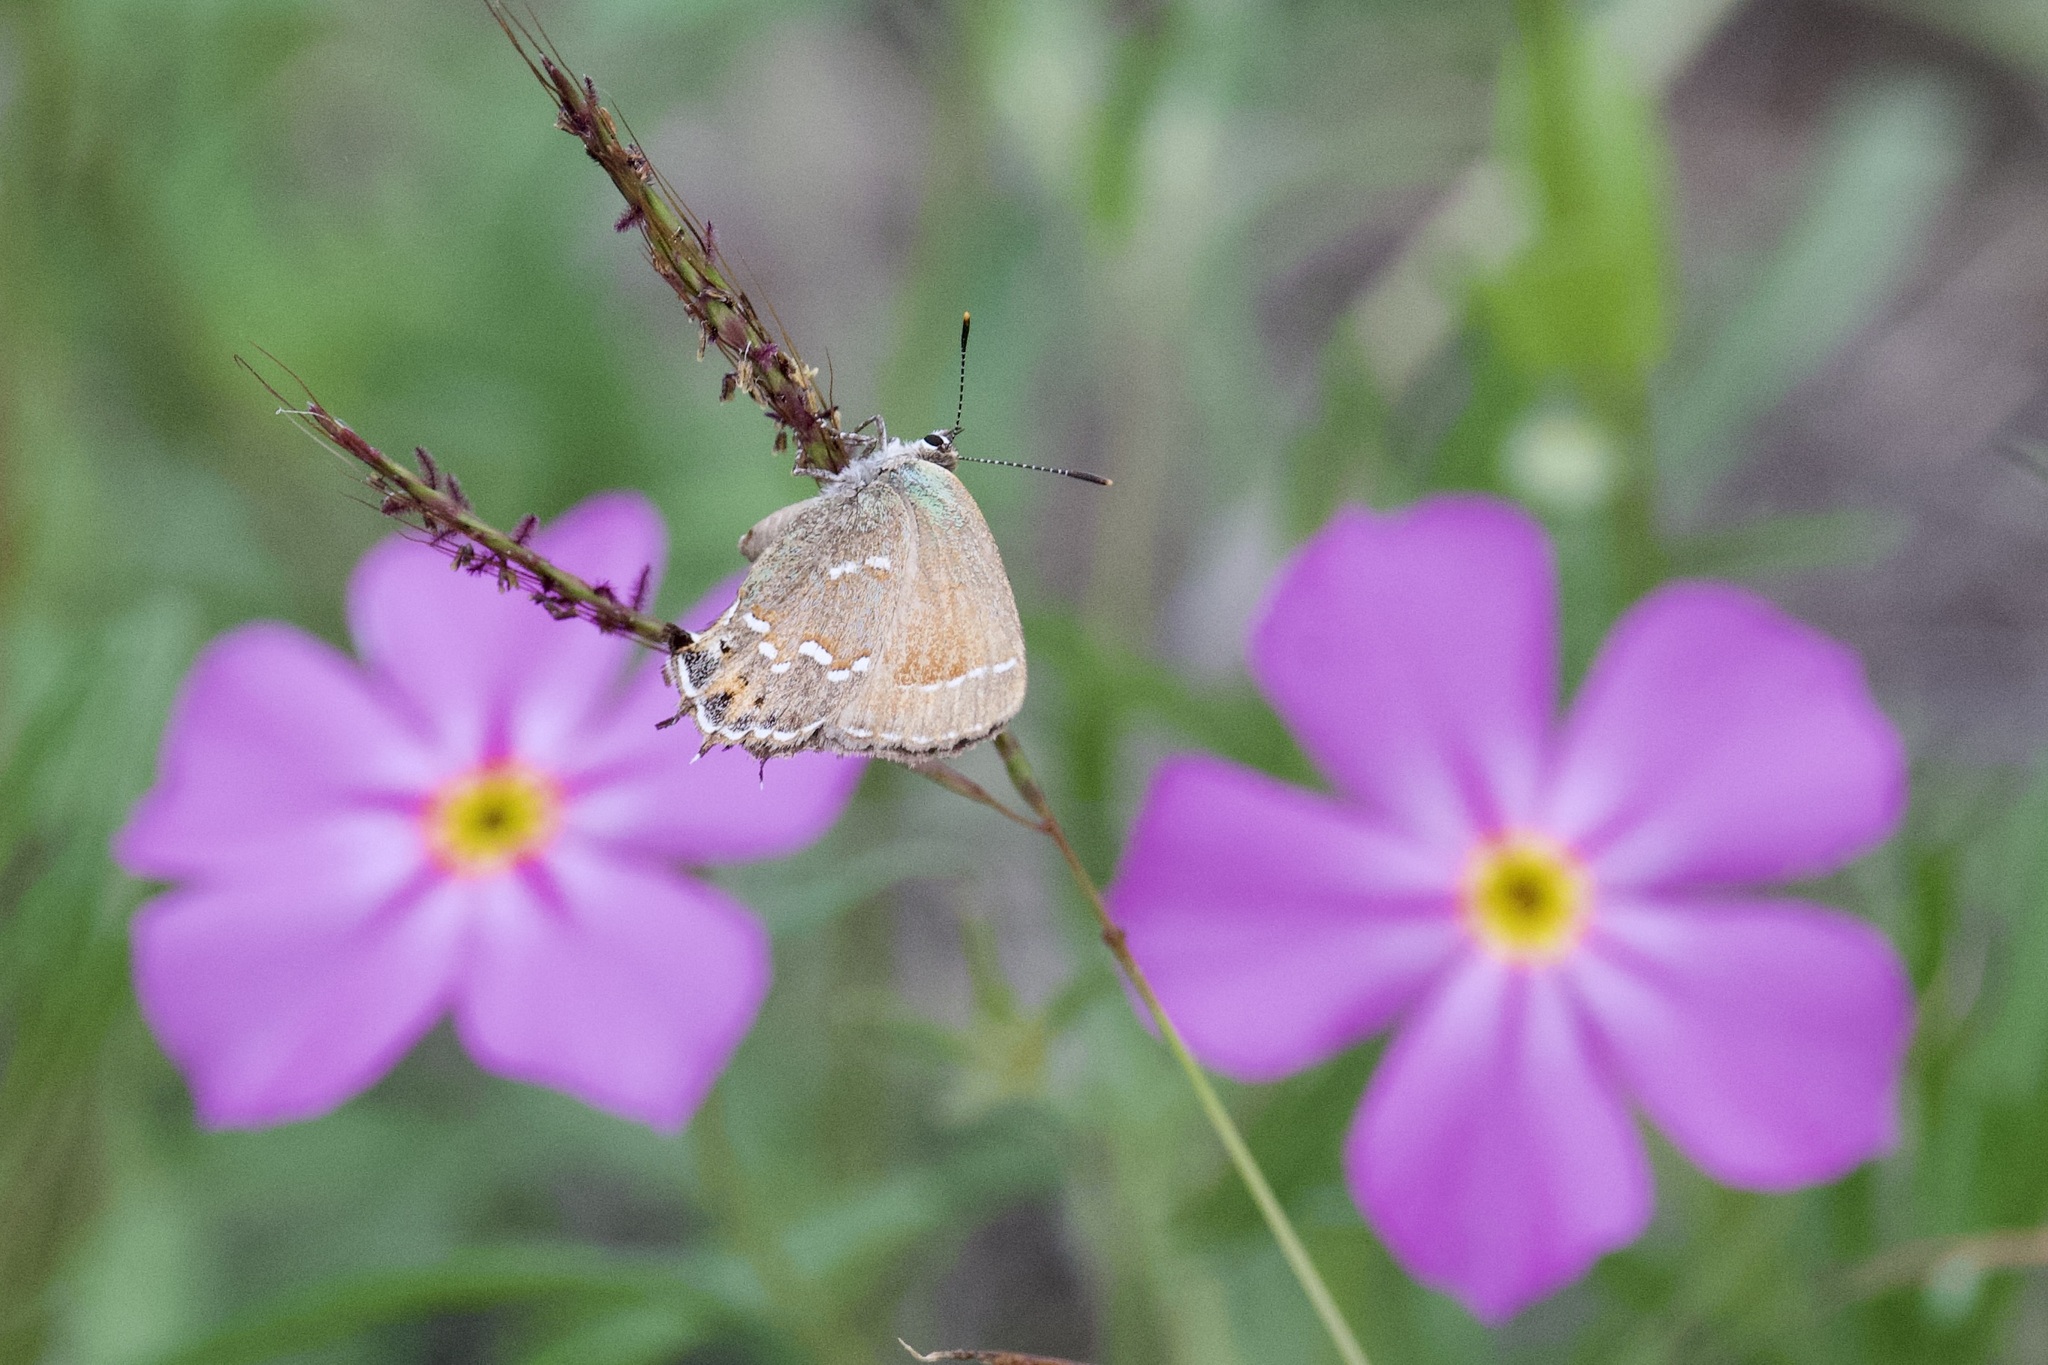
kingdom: Animalia
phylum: Arthropoda
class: Insecta
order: Lepidoptera
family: Lycaenidae
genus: Mitoura
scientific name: Mitoura gryneus
